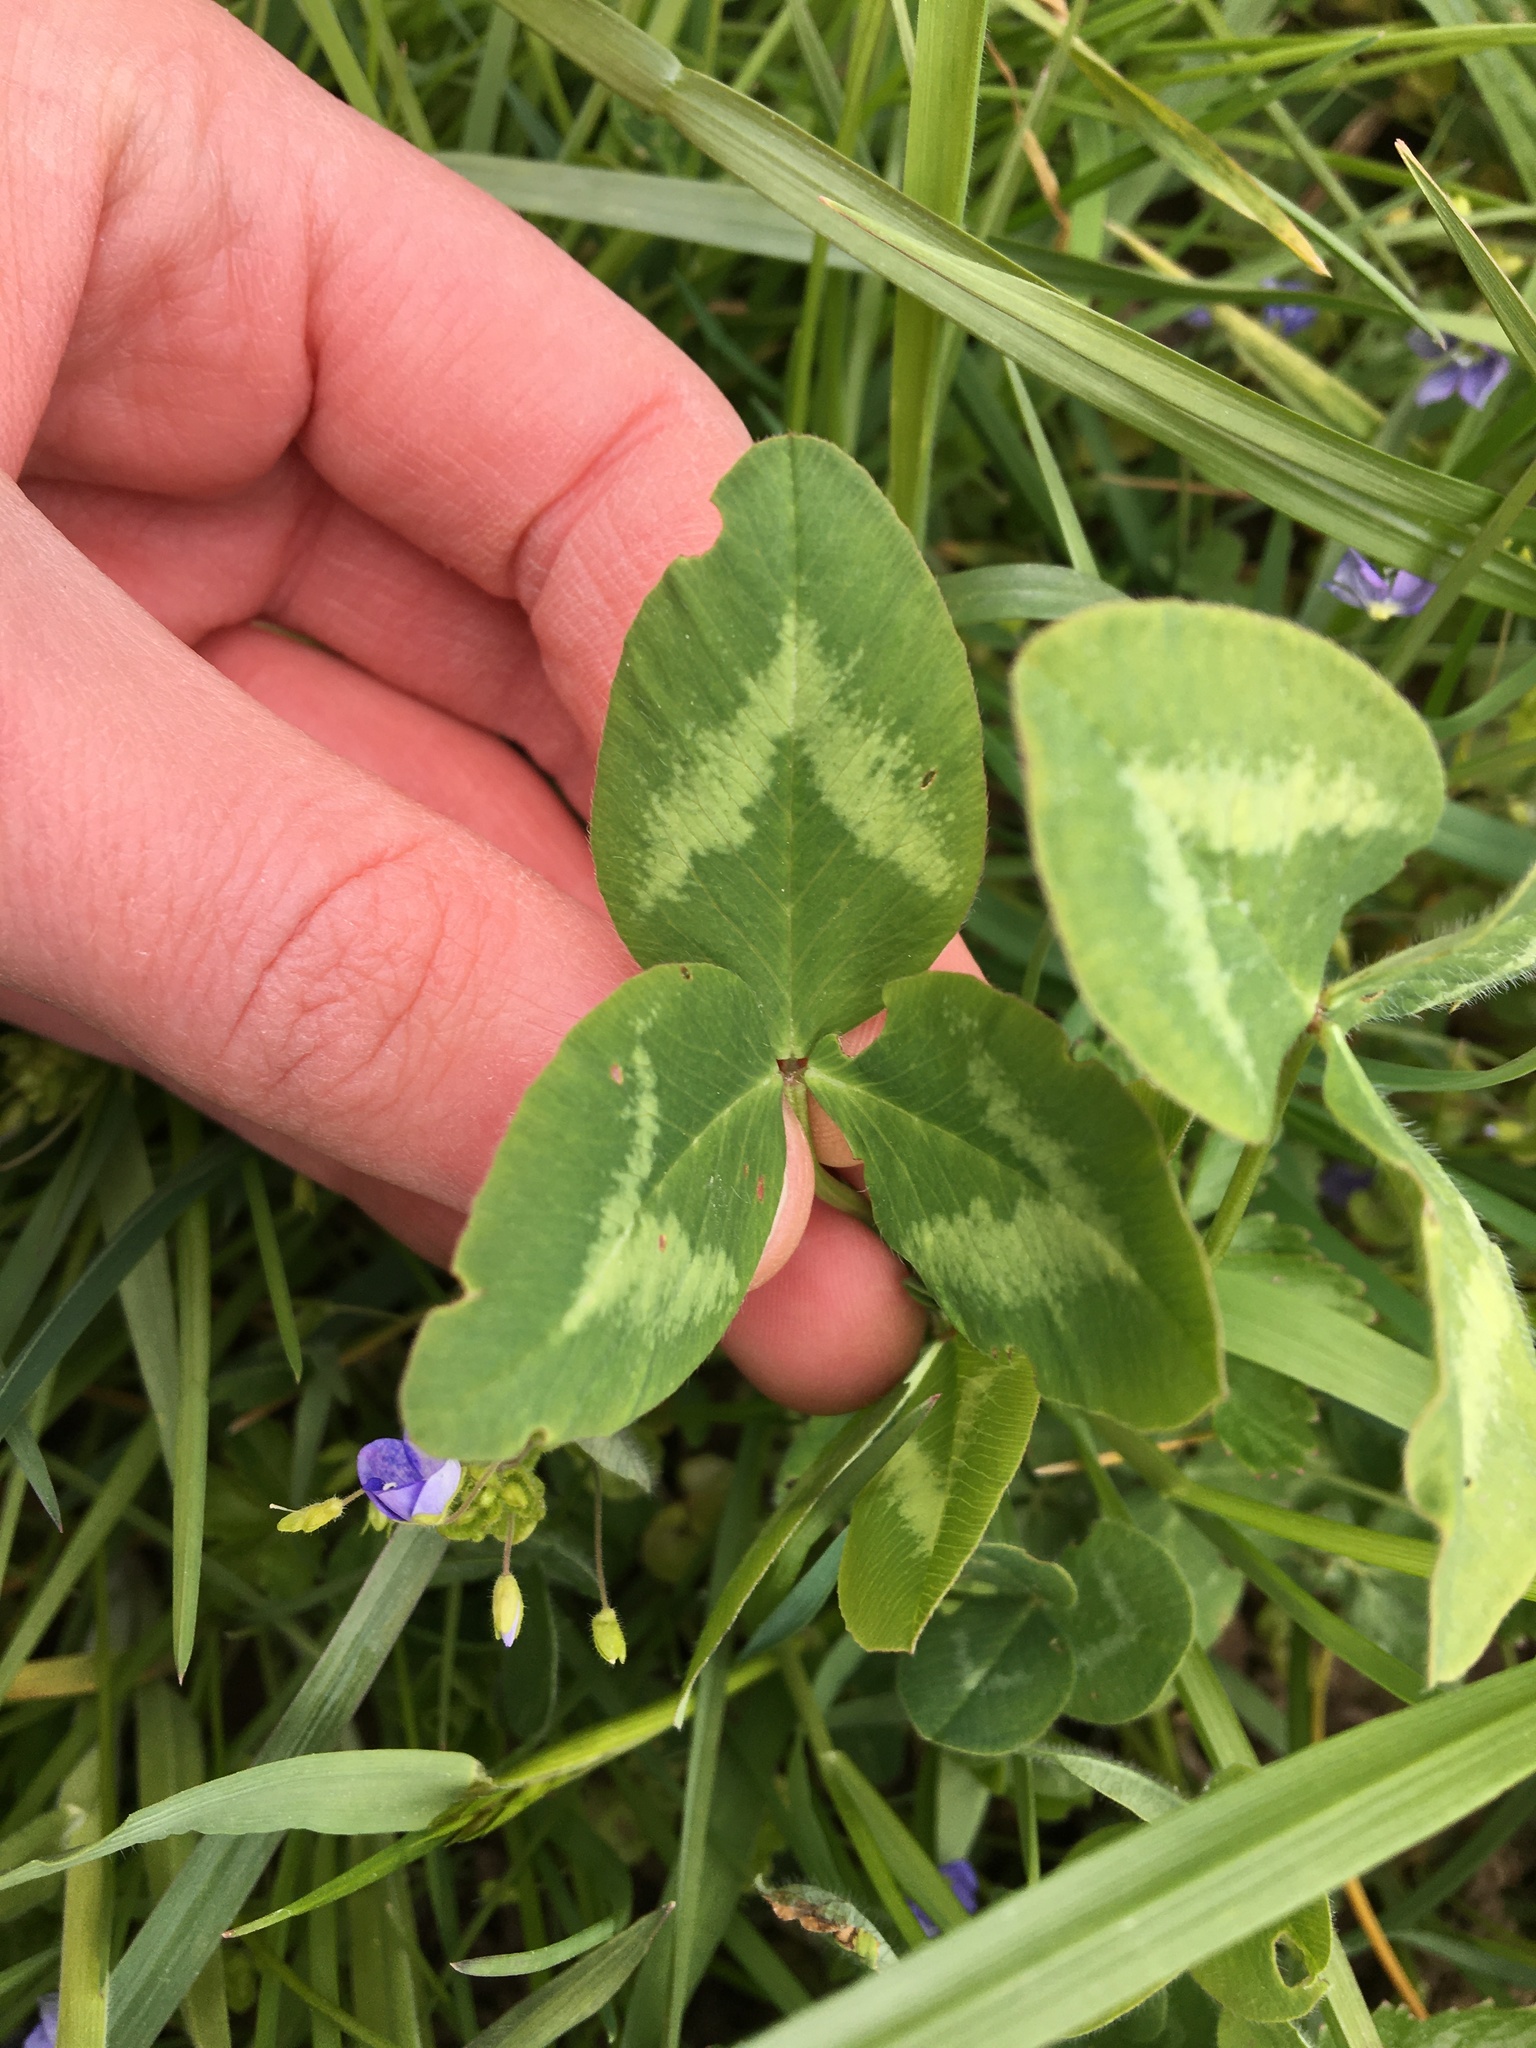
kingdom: Plantae
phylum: Tracheophyta
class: Magnoliopsida
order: Fabales
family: Fabaceae
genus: Trifolium
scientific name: Trifolium pratense
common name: Red clover
